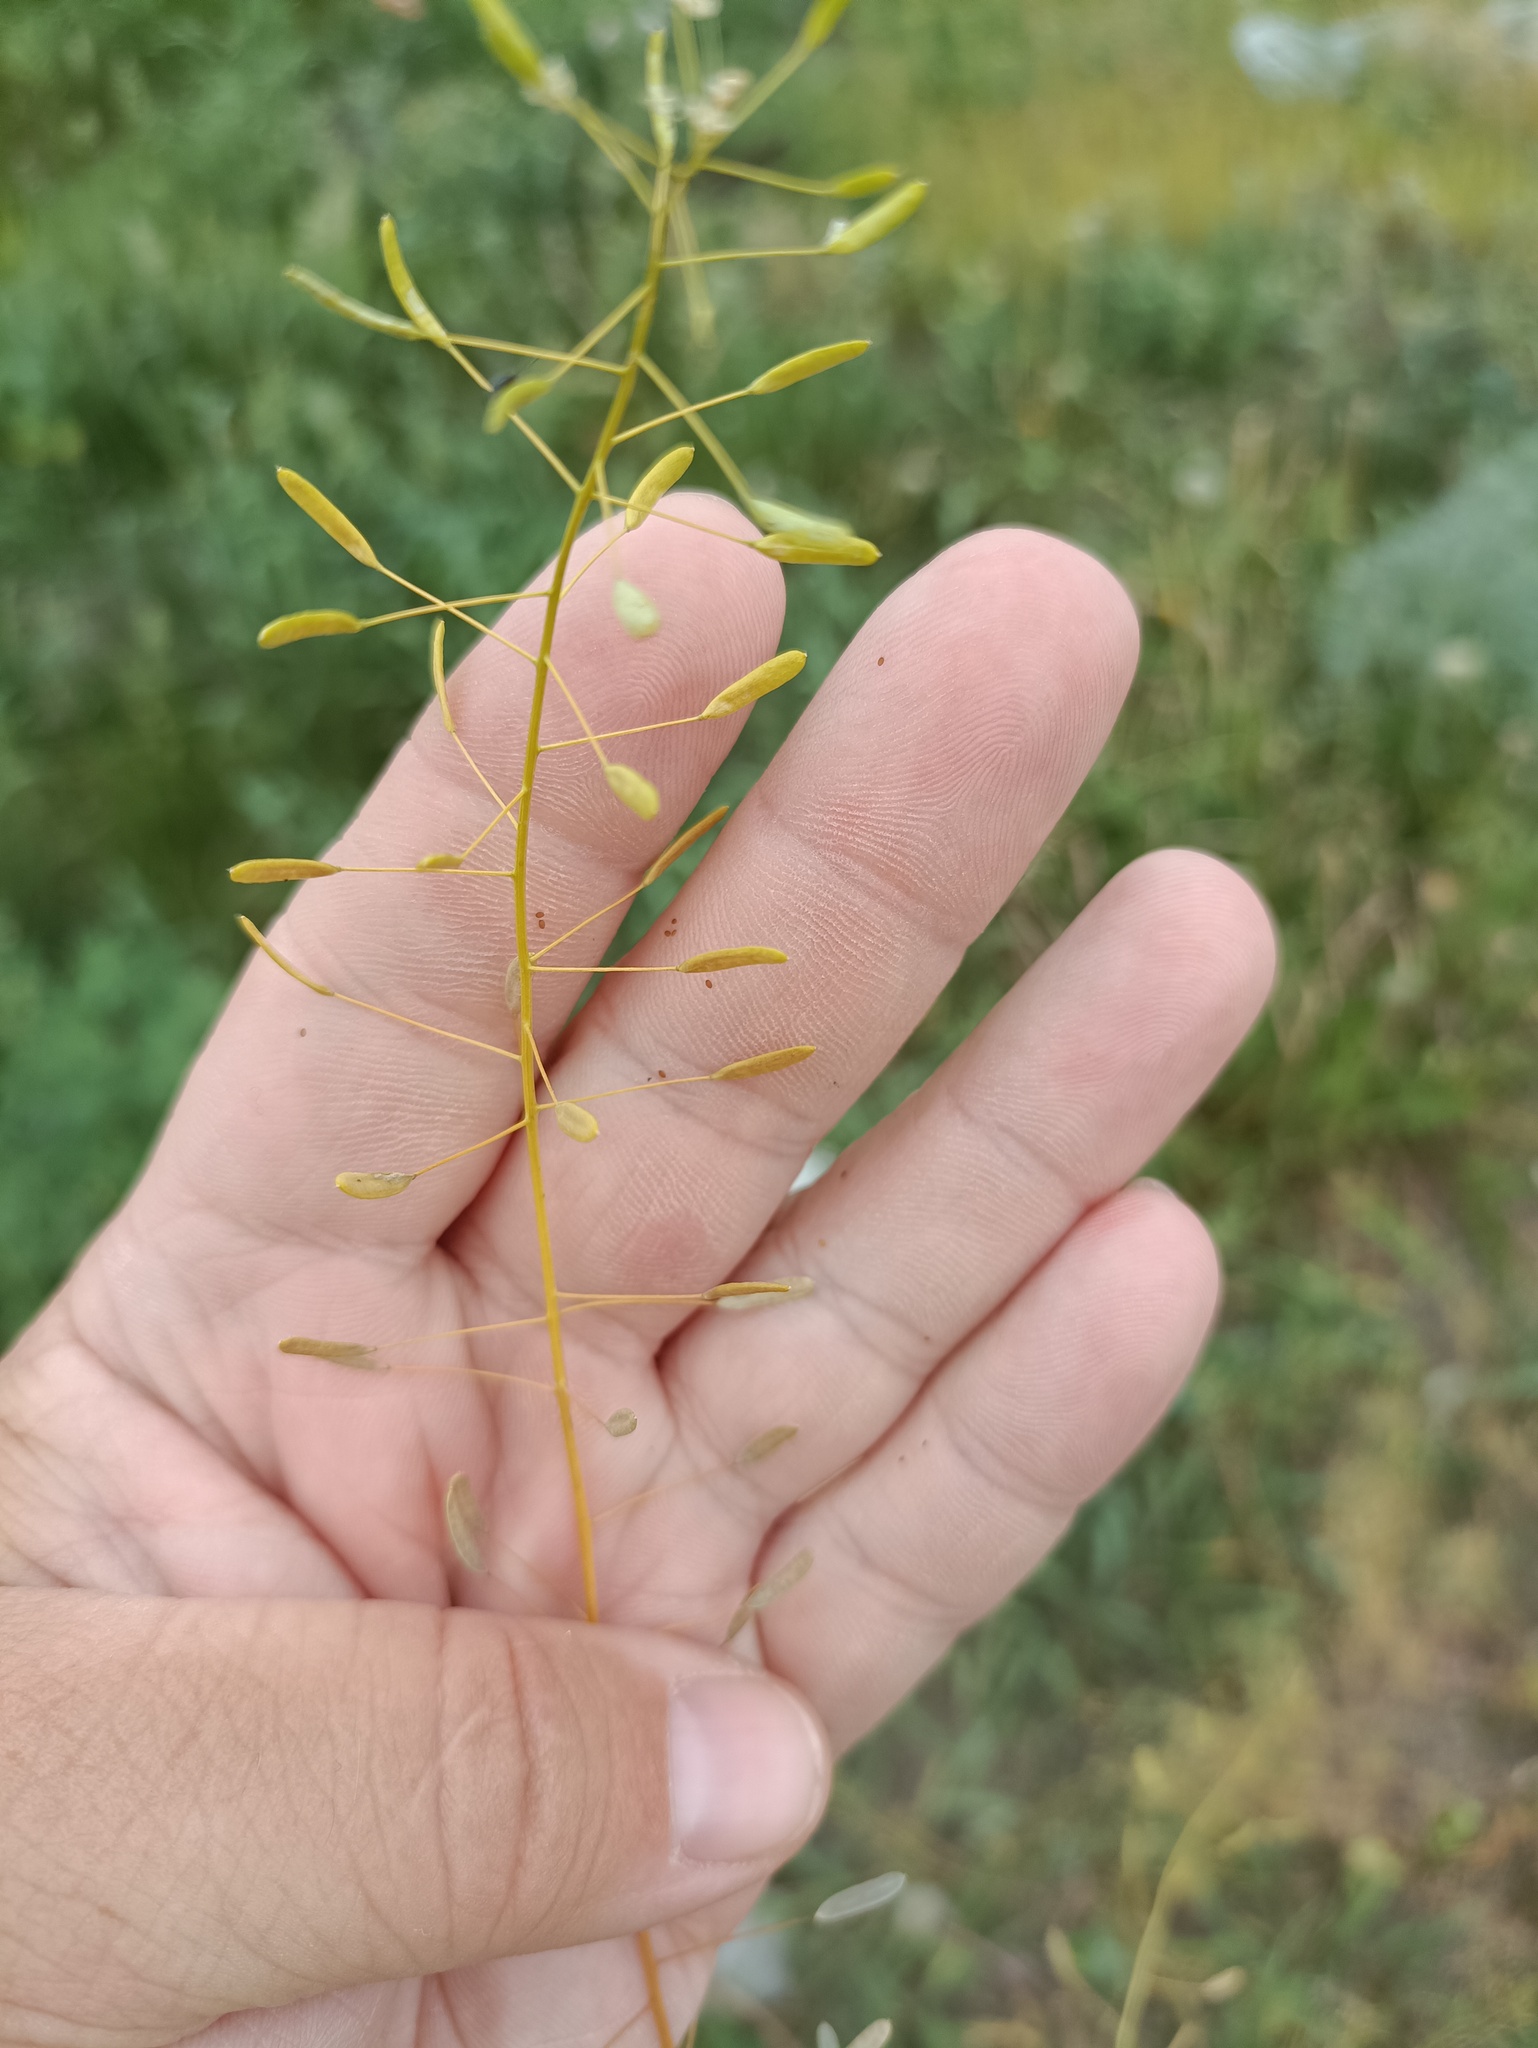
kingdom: Plantae
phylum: Tracheophyta
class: Magnoliopsida
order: Brassicales
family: Brassicaceae
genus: Draba
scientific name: Draba nemorosa
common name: Wood whitlow-grass
